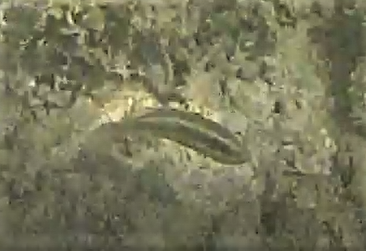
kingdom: Animalia
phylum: Chordata
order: Perciformes
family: Labridae
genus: Halichoeres
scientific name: Halichoeres bivittatus
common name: Slippery dick
